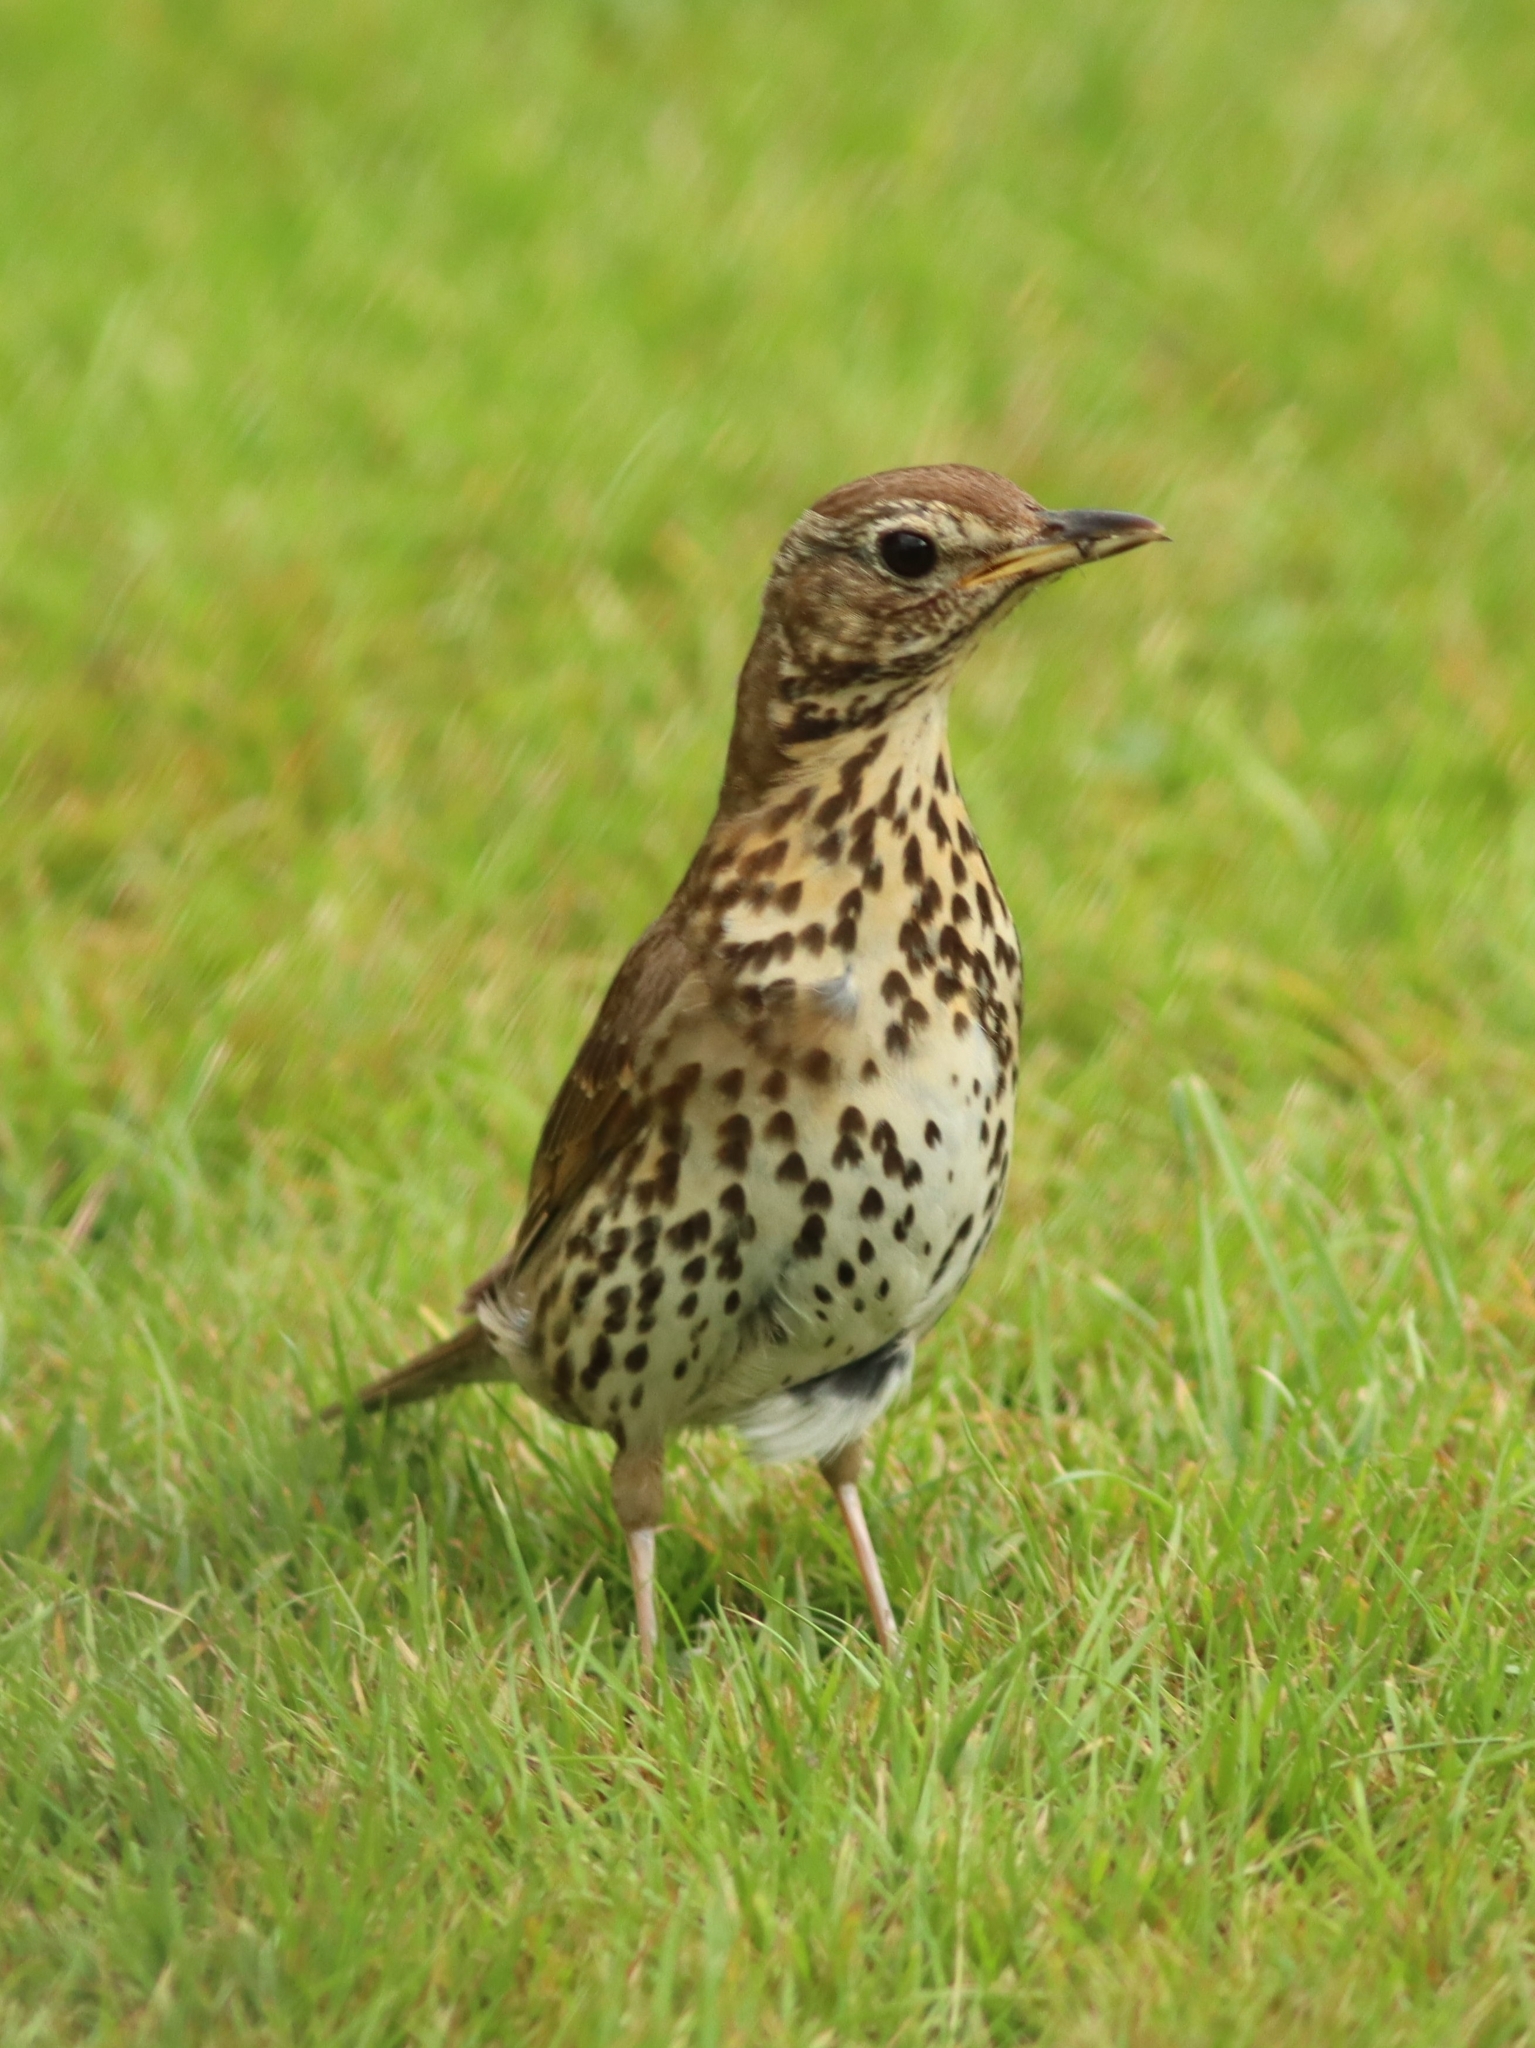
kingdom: Animalia
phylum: Chordata
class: Aves
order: Passeriformes
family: Turdidae
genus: Turdus
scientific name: Turdus philomelos
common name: Song thrush
